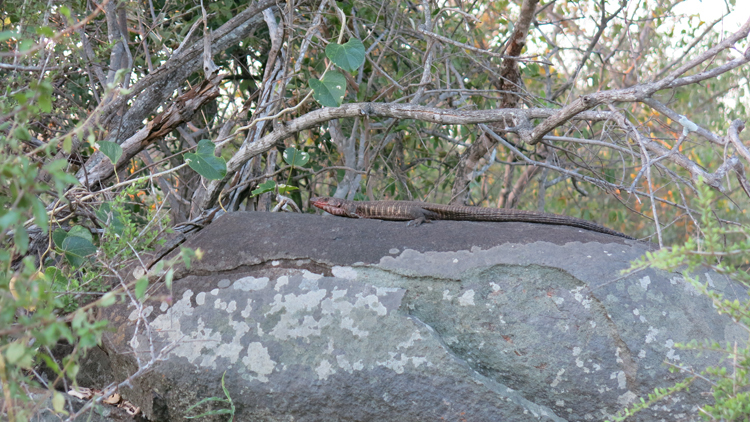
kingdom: Animalia
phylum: Chordata
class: Squamata
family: Gerrhosauridae
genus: Matobosaurus
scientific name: Matobosaurus validus
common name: Common giant plated lizard
